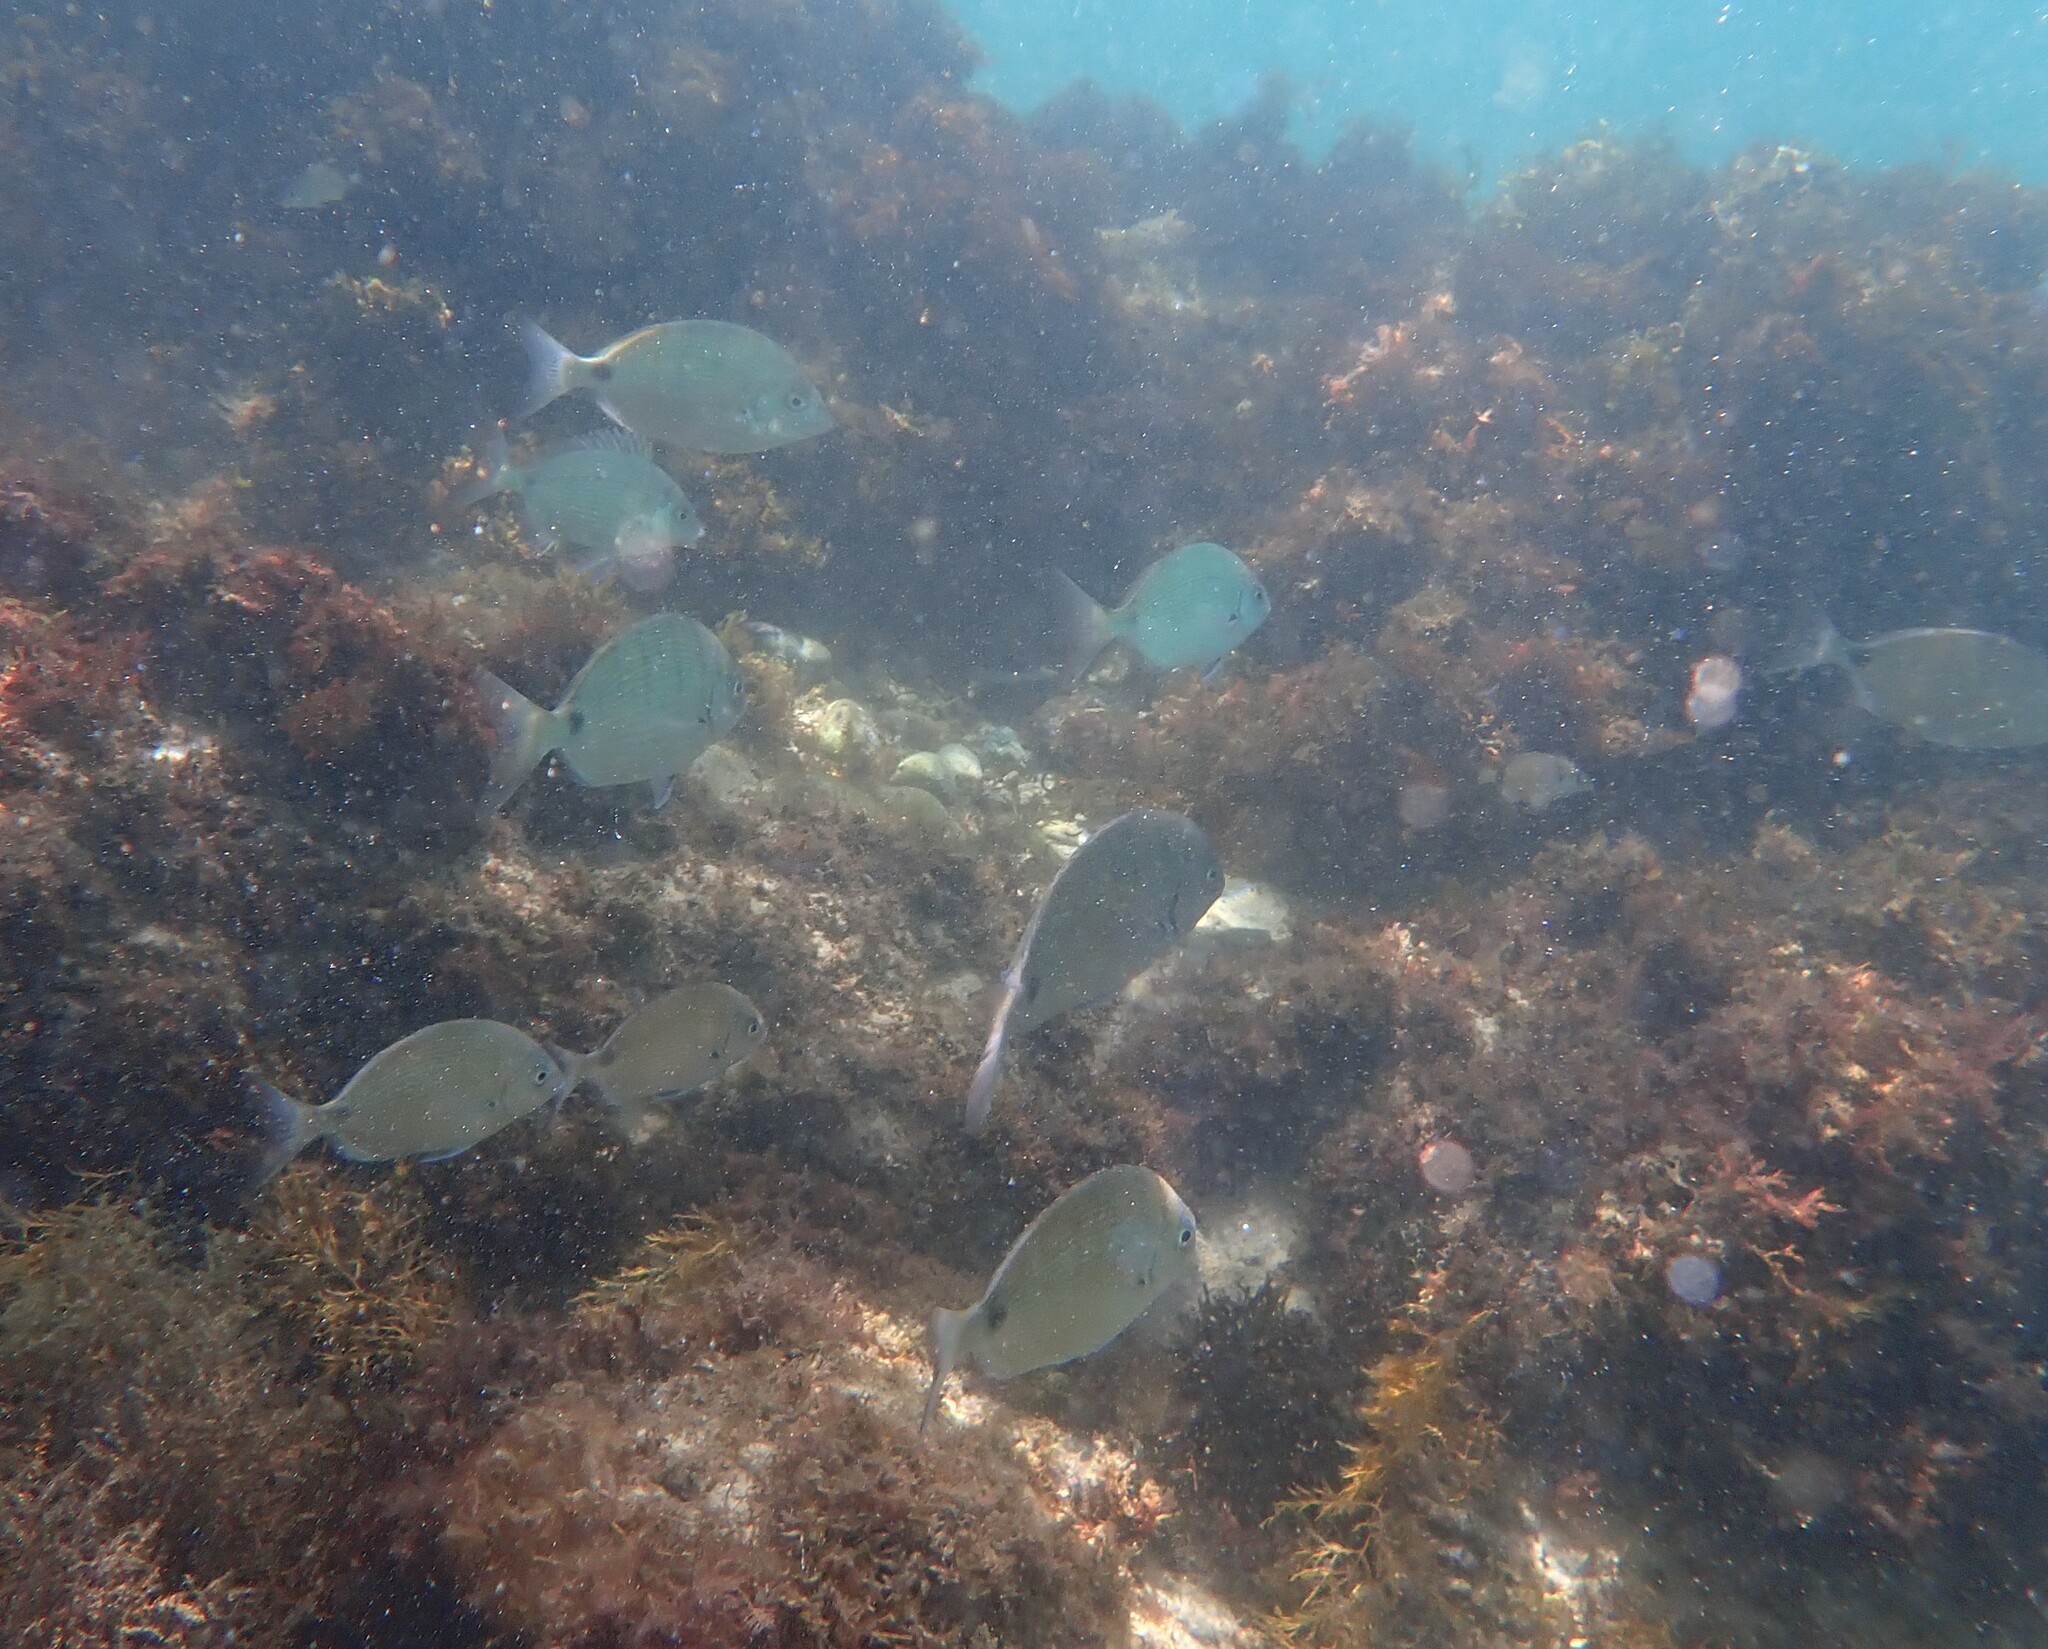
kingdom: Animalia
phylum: Chordata
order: Perciformes
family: Sparidae
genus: Diplodus
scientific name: Diplodus cadenati
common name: Moroccan white seabream
